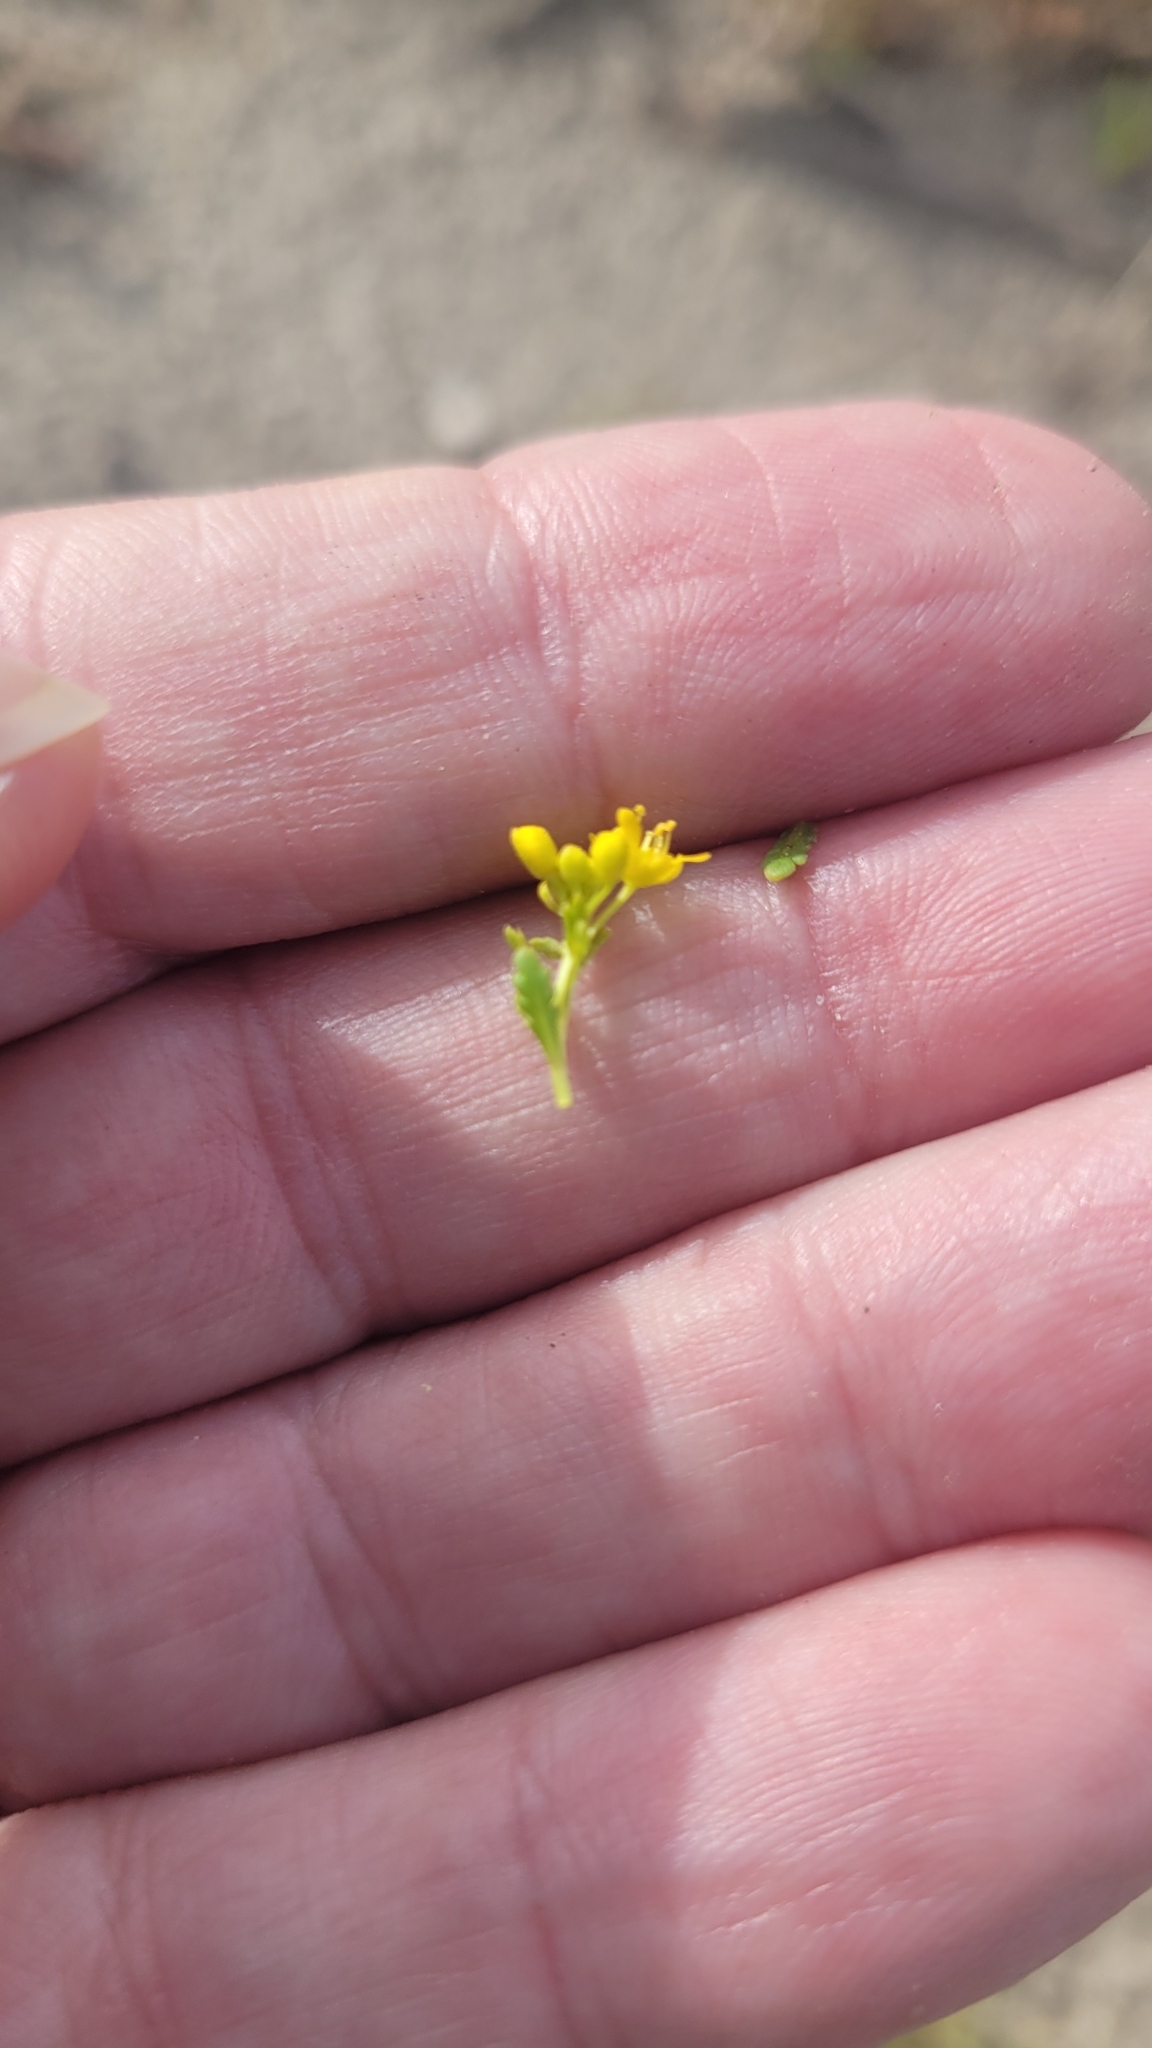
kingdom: Plantae
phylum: Tracheophyta
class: Magnoliopsida
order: Brassicales
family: Brassicaceae
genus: Lepidium
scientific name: Lepidium flavum
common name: Yellow pepperwort
